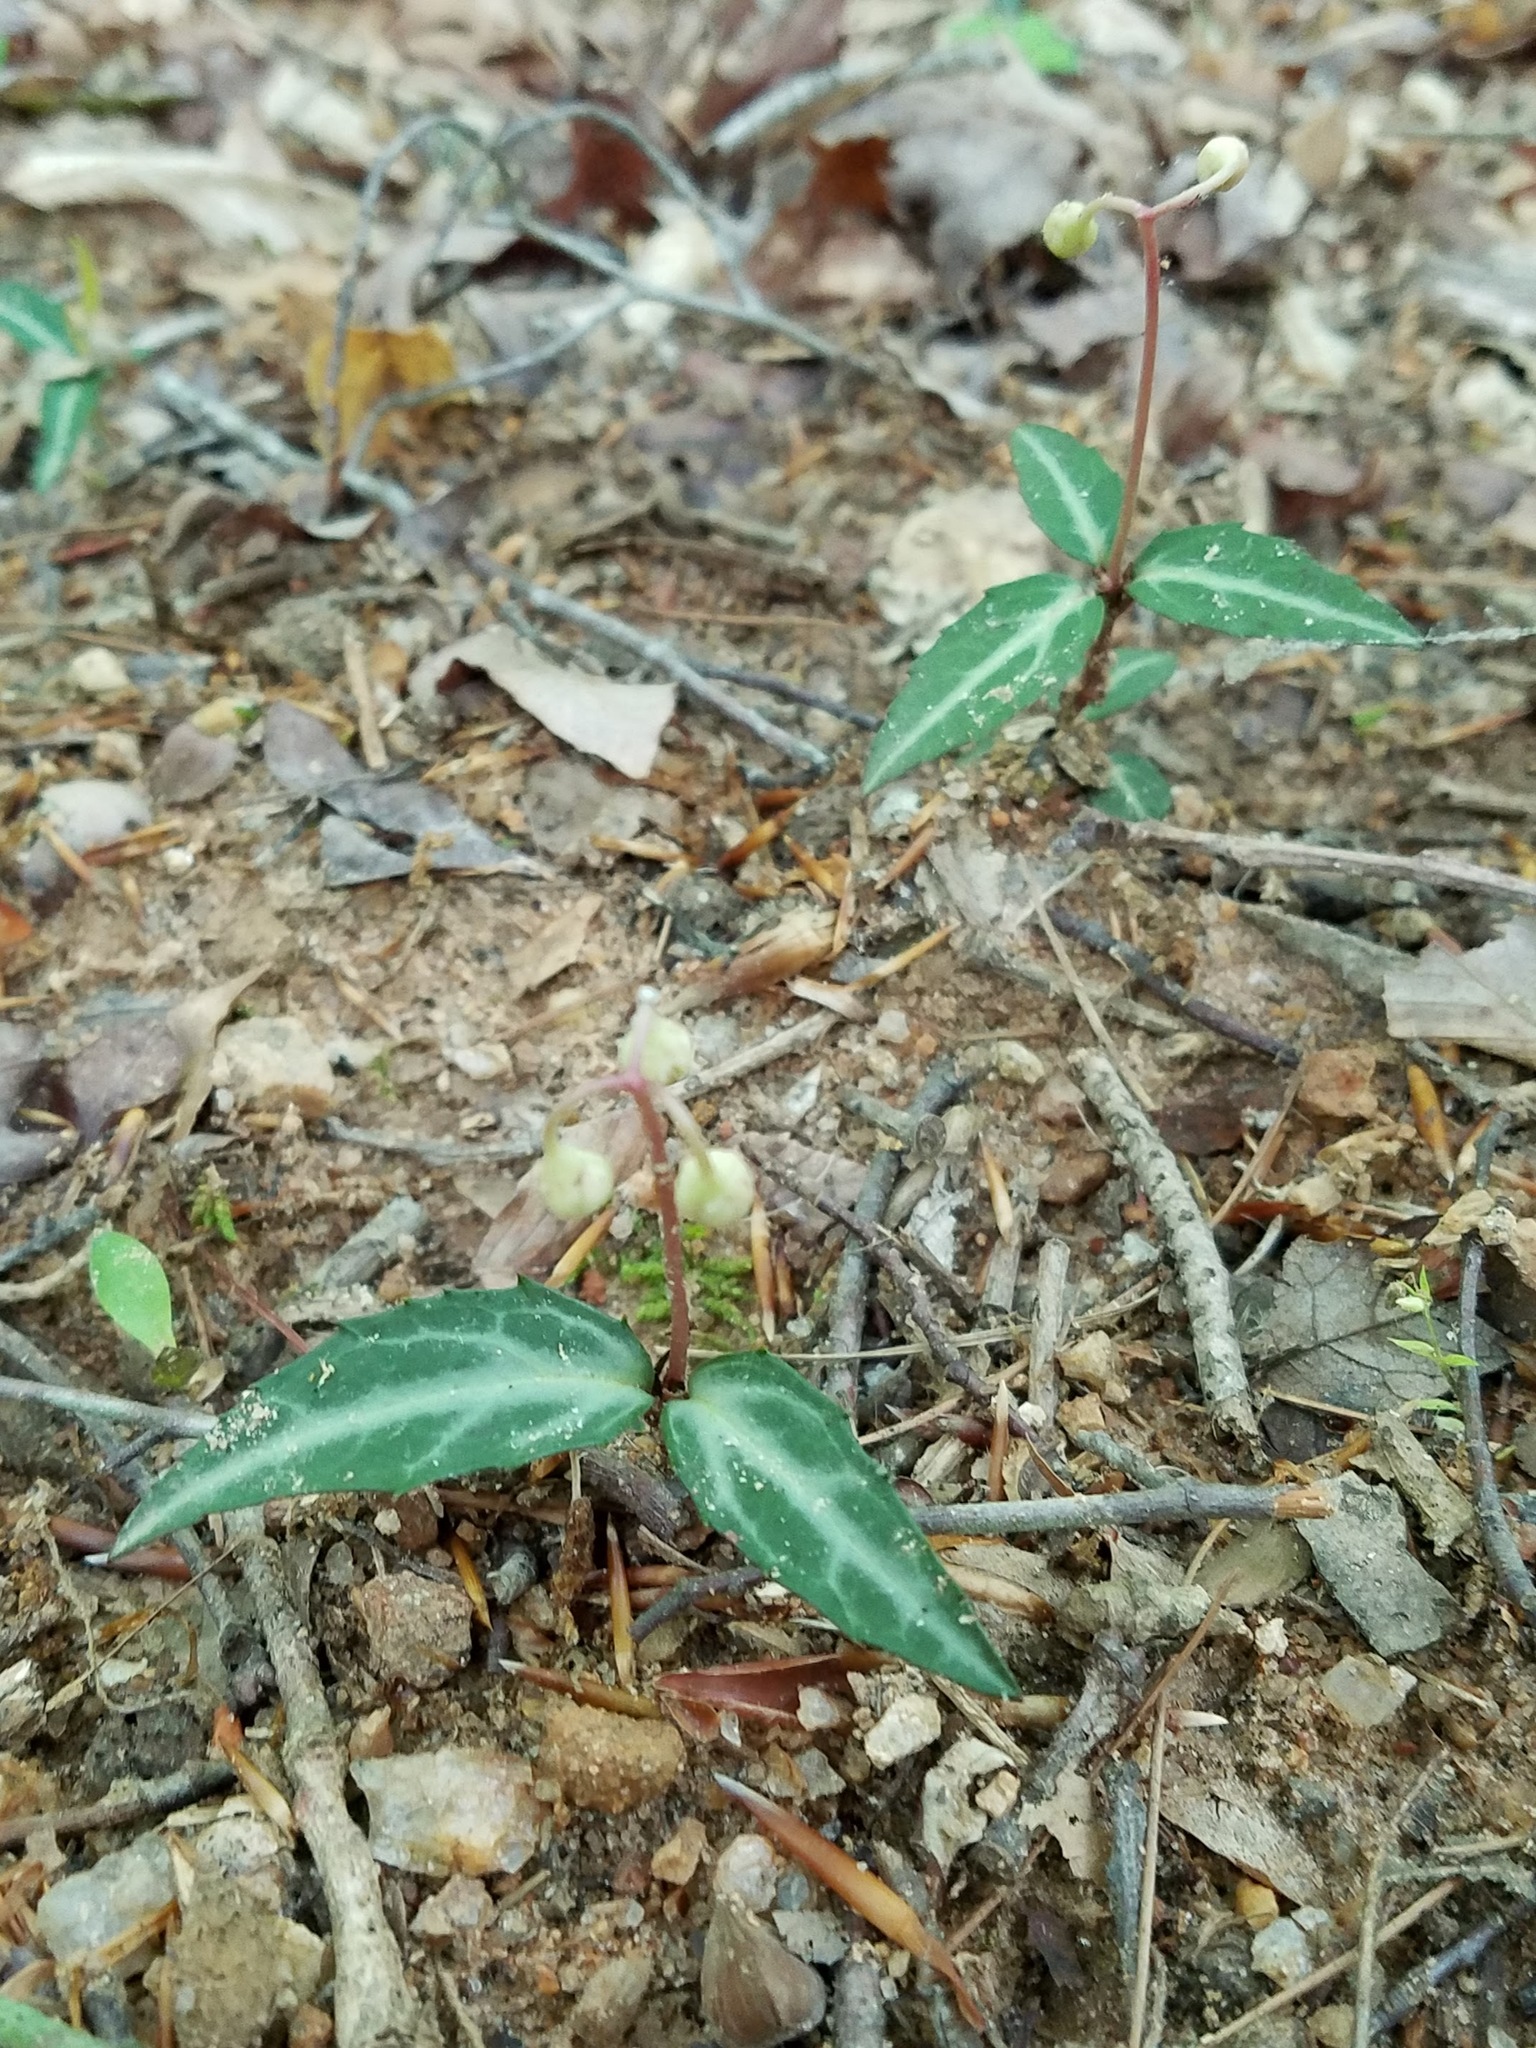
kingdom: Plantae
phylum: Tracheophyta
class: Magnoliopsida
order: Ericales
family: Ericaceae
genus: Chimaphila
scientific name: Chimaphila maculata
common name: Spotted pipsissewa
